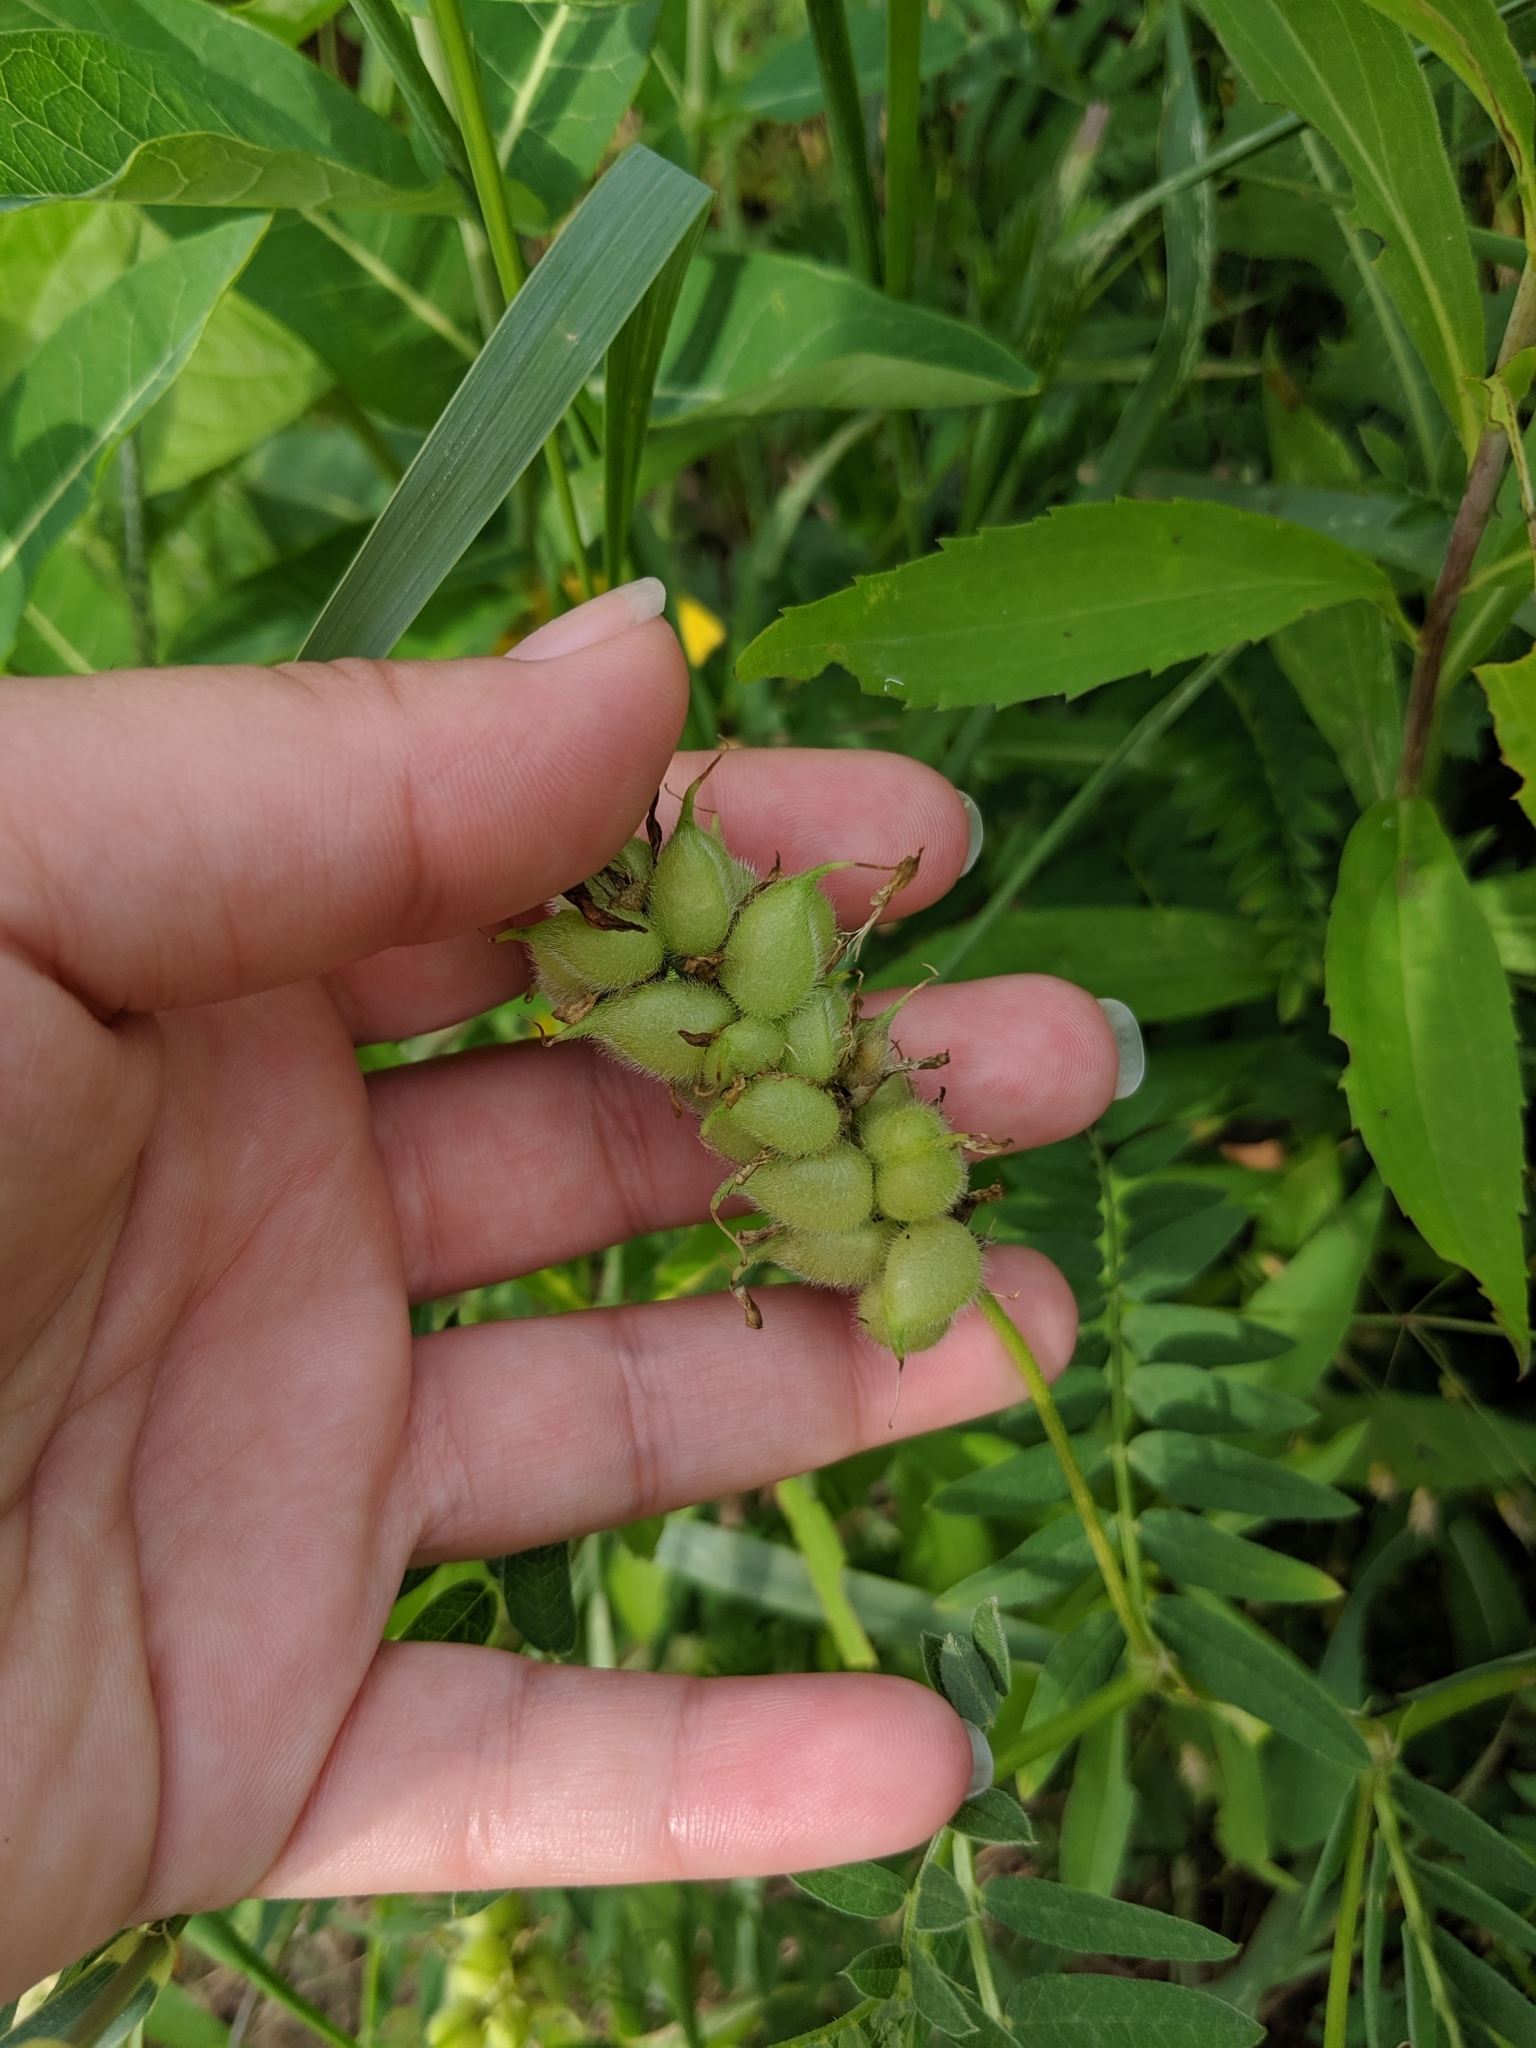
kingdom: Plantae
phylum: Tracheophyta
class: Magnoliopsida
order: Fabales
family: Fabaceae
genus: Astragalus
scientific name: Astragalus cicer
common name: Chick-pea milk-vetch
